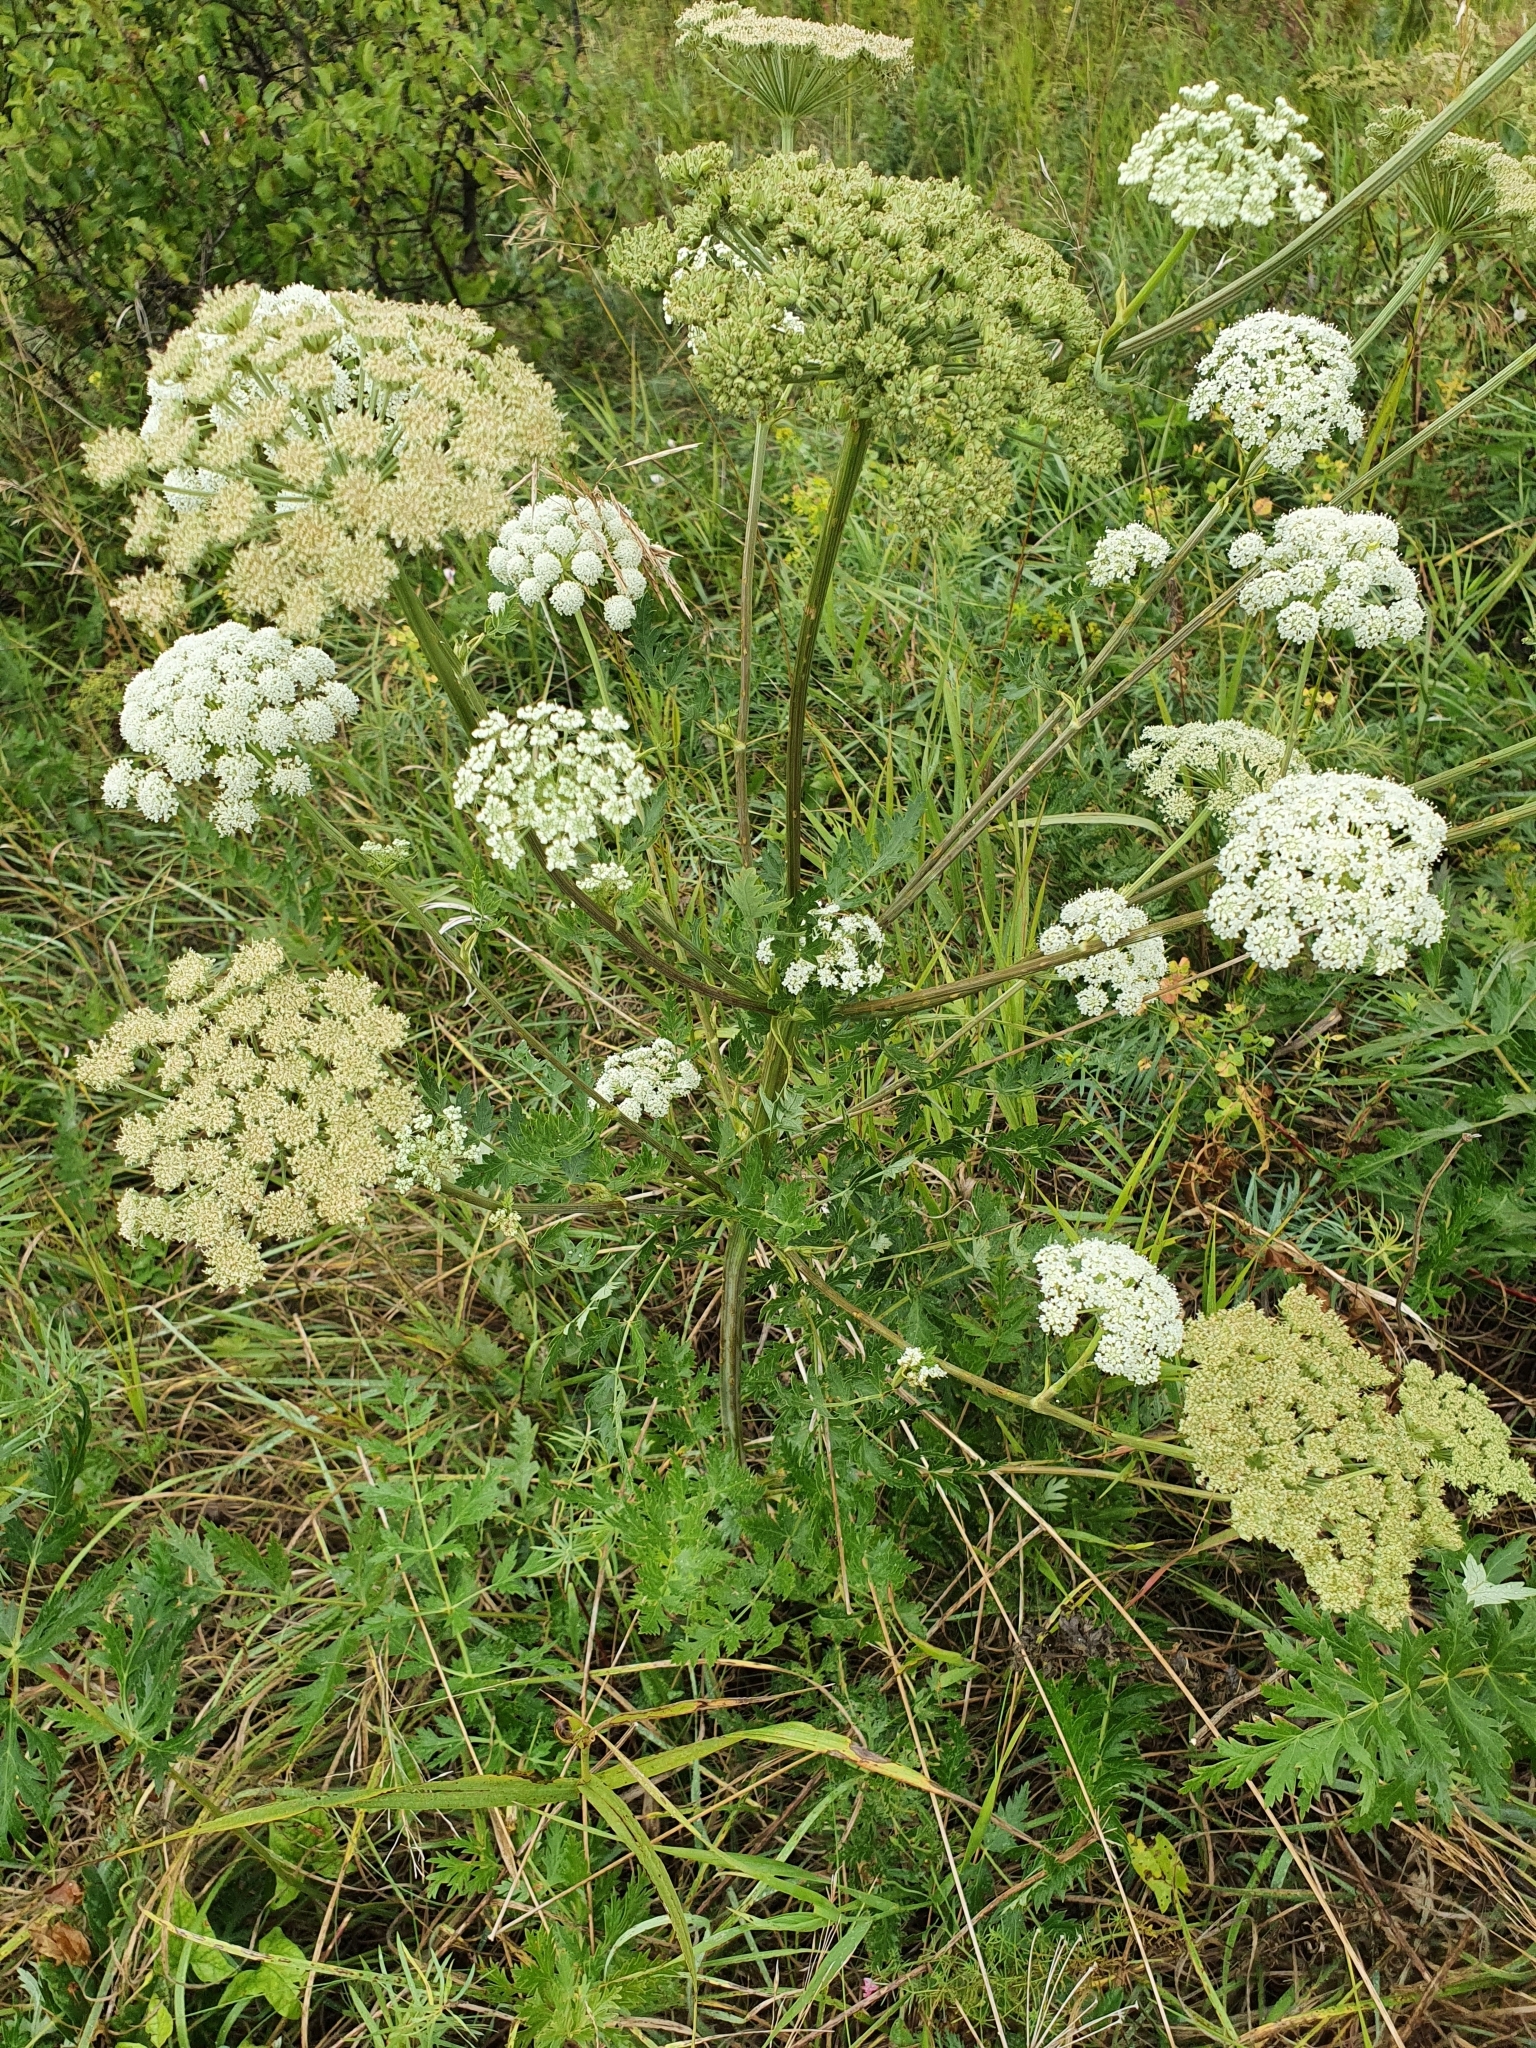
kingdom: Plantae
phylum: Tracheophyta
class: Magnoliopsida
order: Apiales
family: Apiaceae
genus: Seseli
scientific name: Seseli libanotis
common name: Mooncarrot
